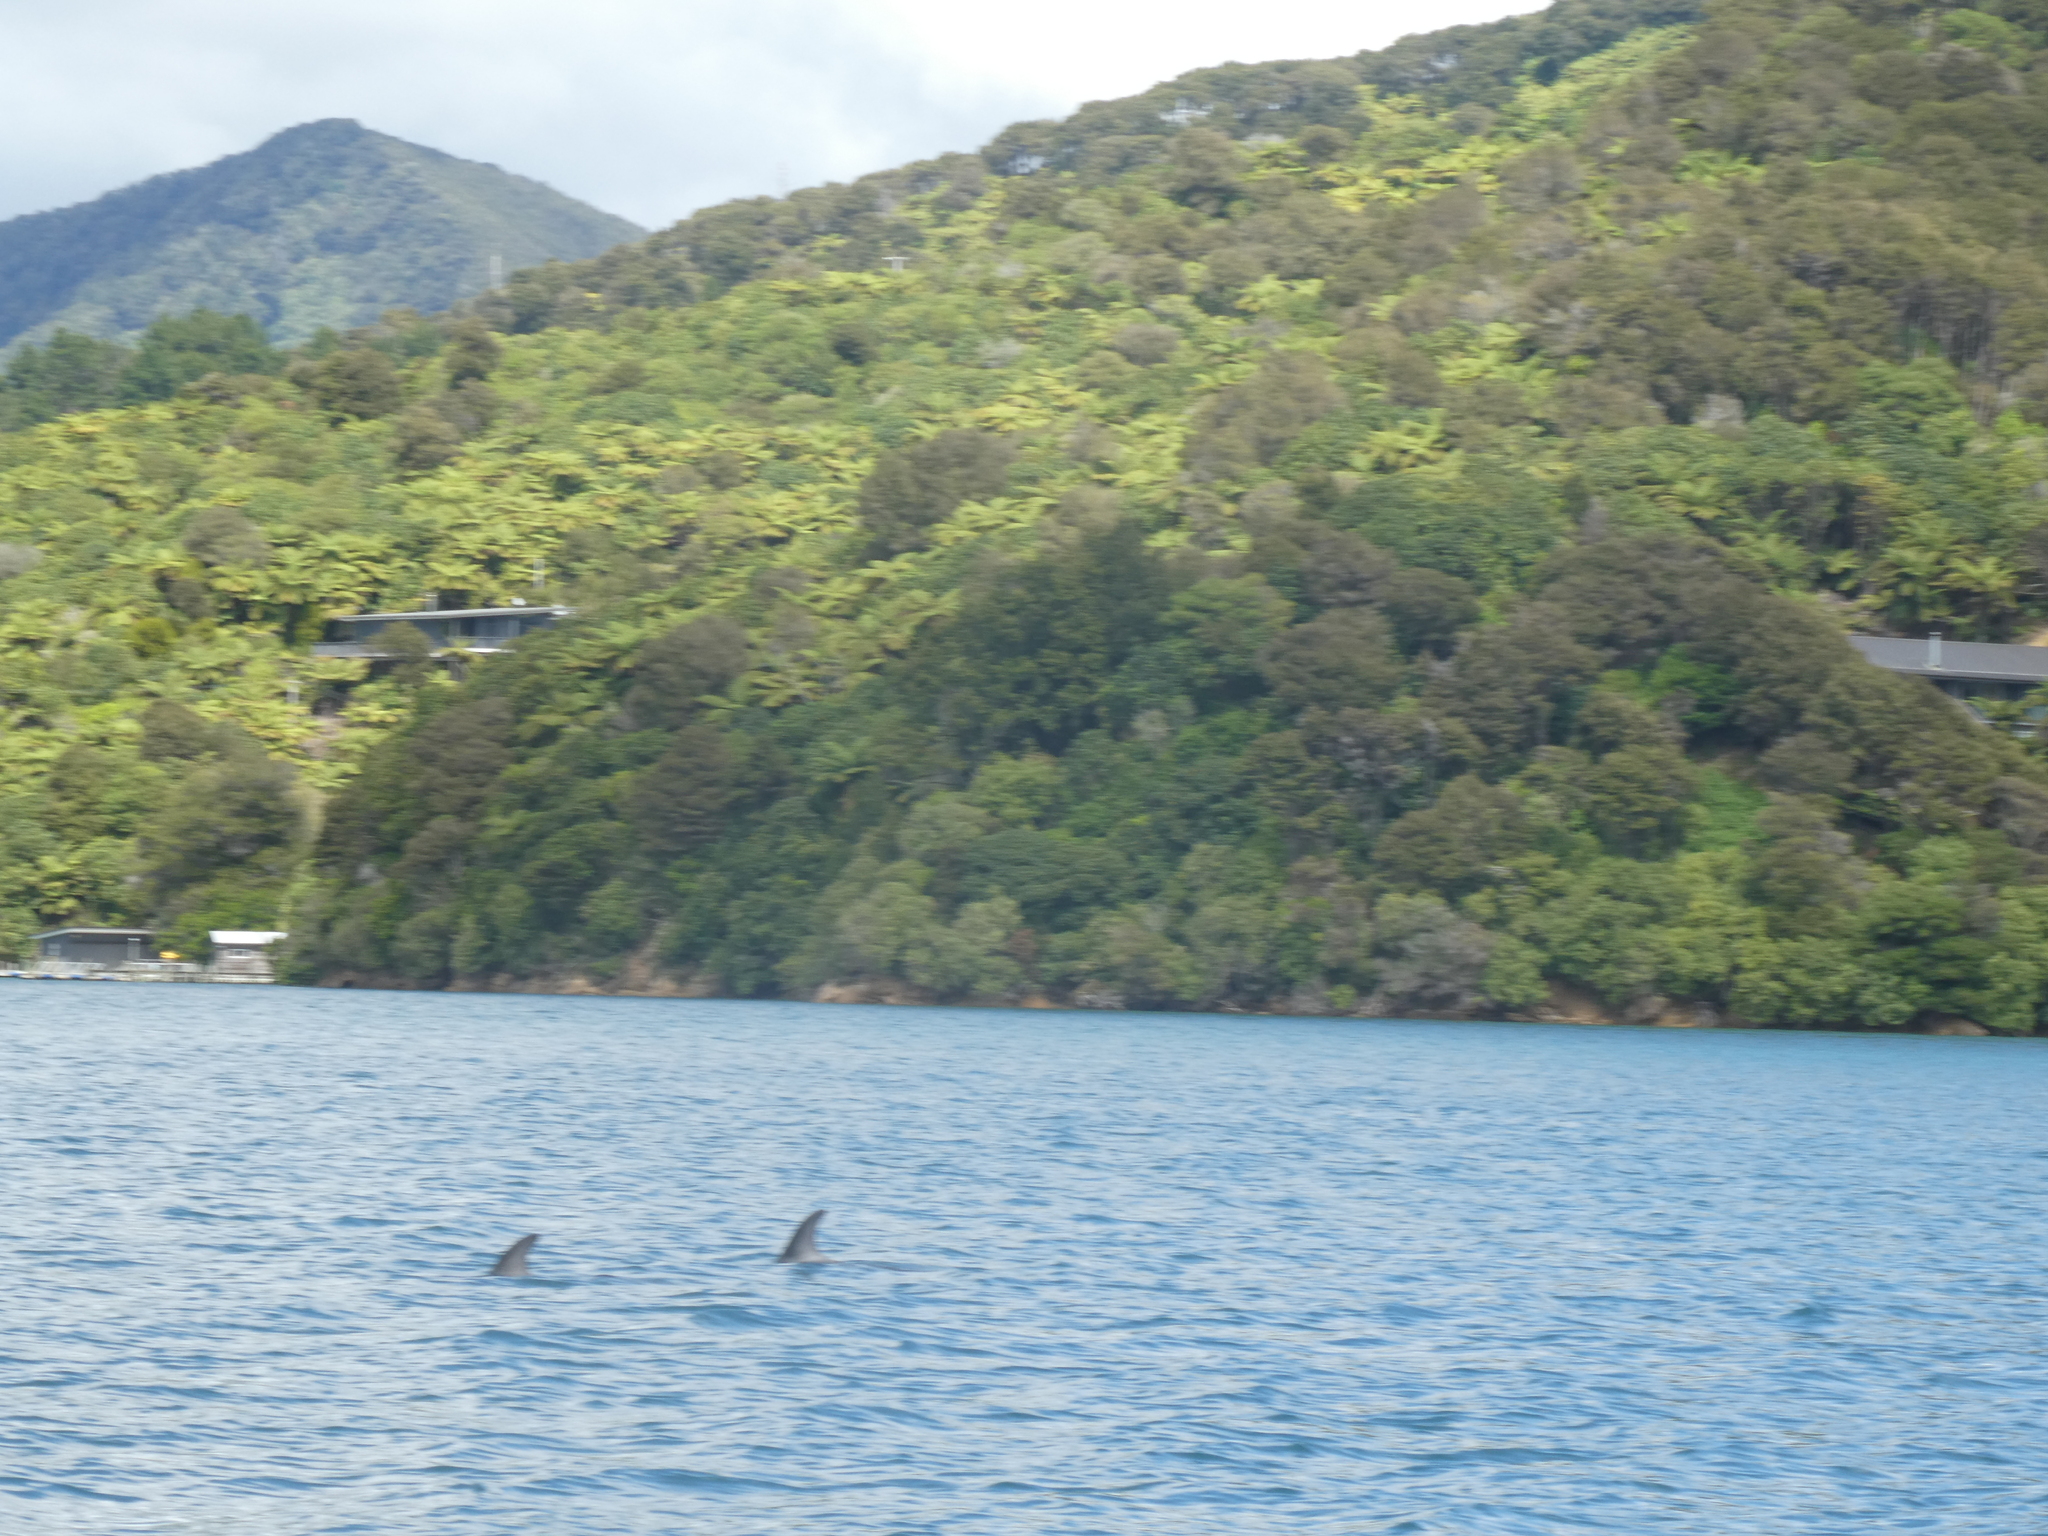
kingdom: Animalia
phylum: Chordata
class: Mammalia
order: Cetacea
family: Delphinidae
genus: Tursiops
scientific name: Tursiops truncatus
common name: Bottlenose dolphin
